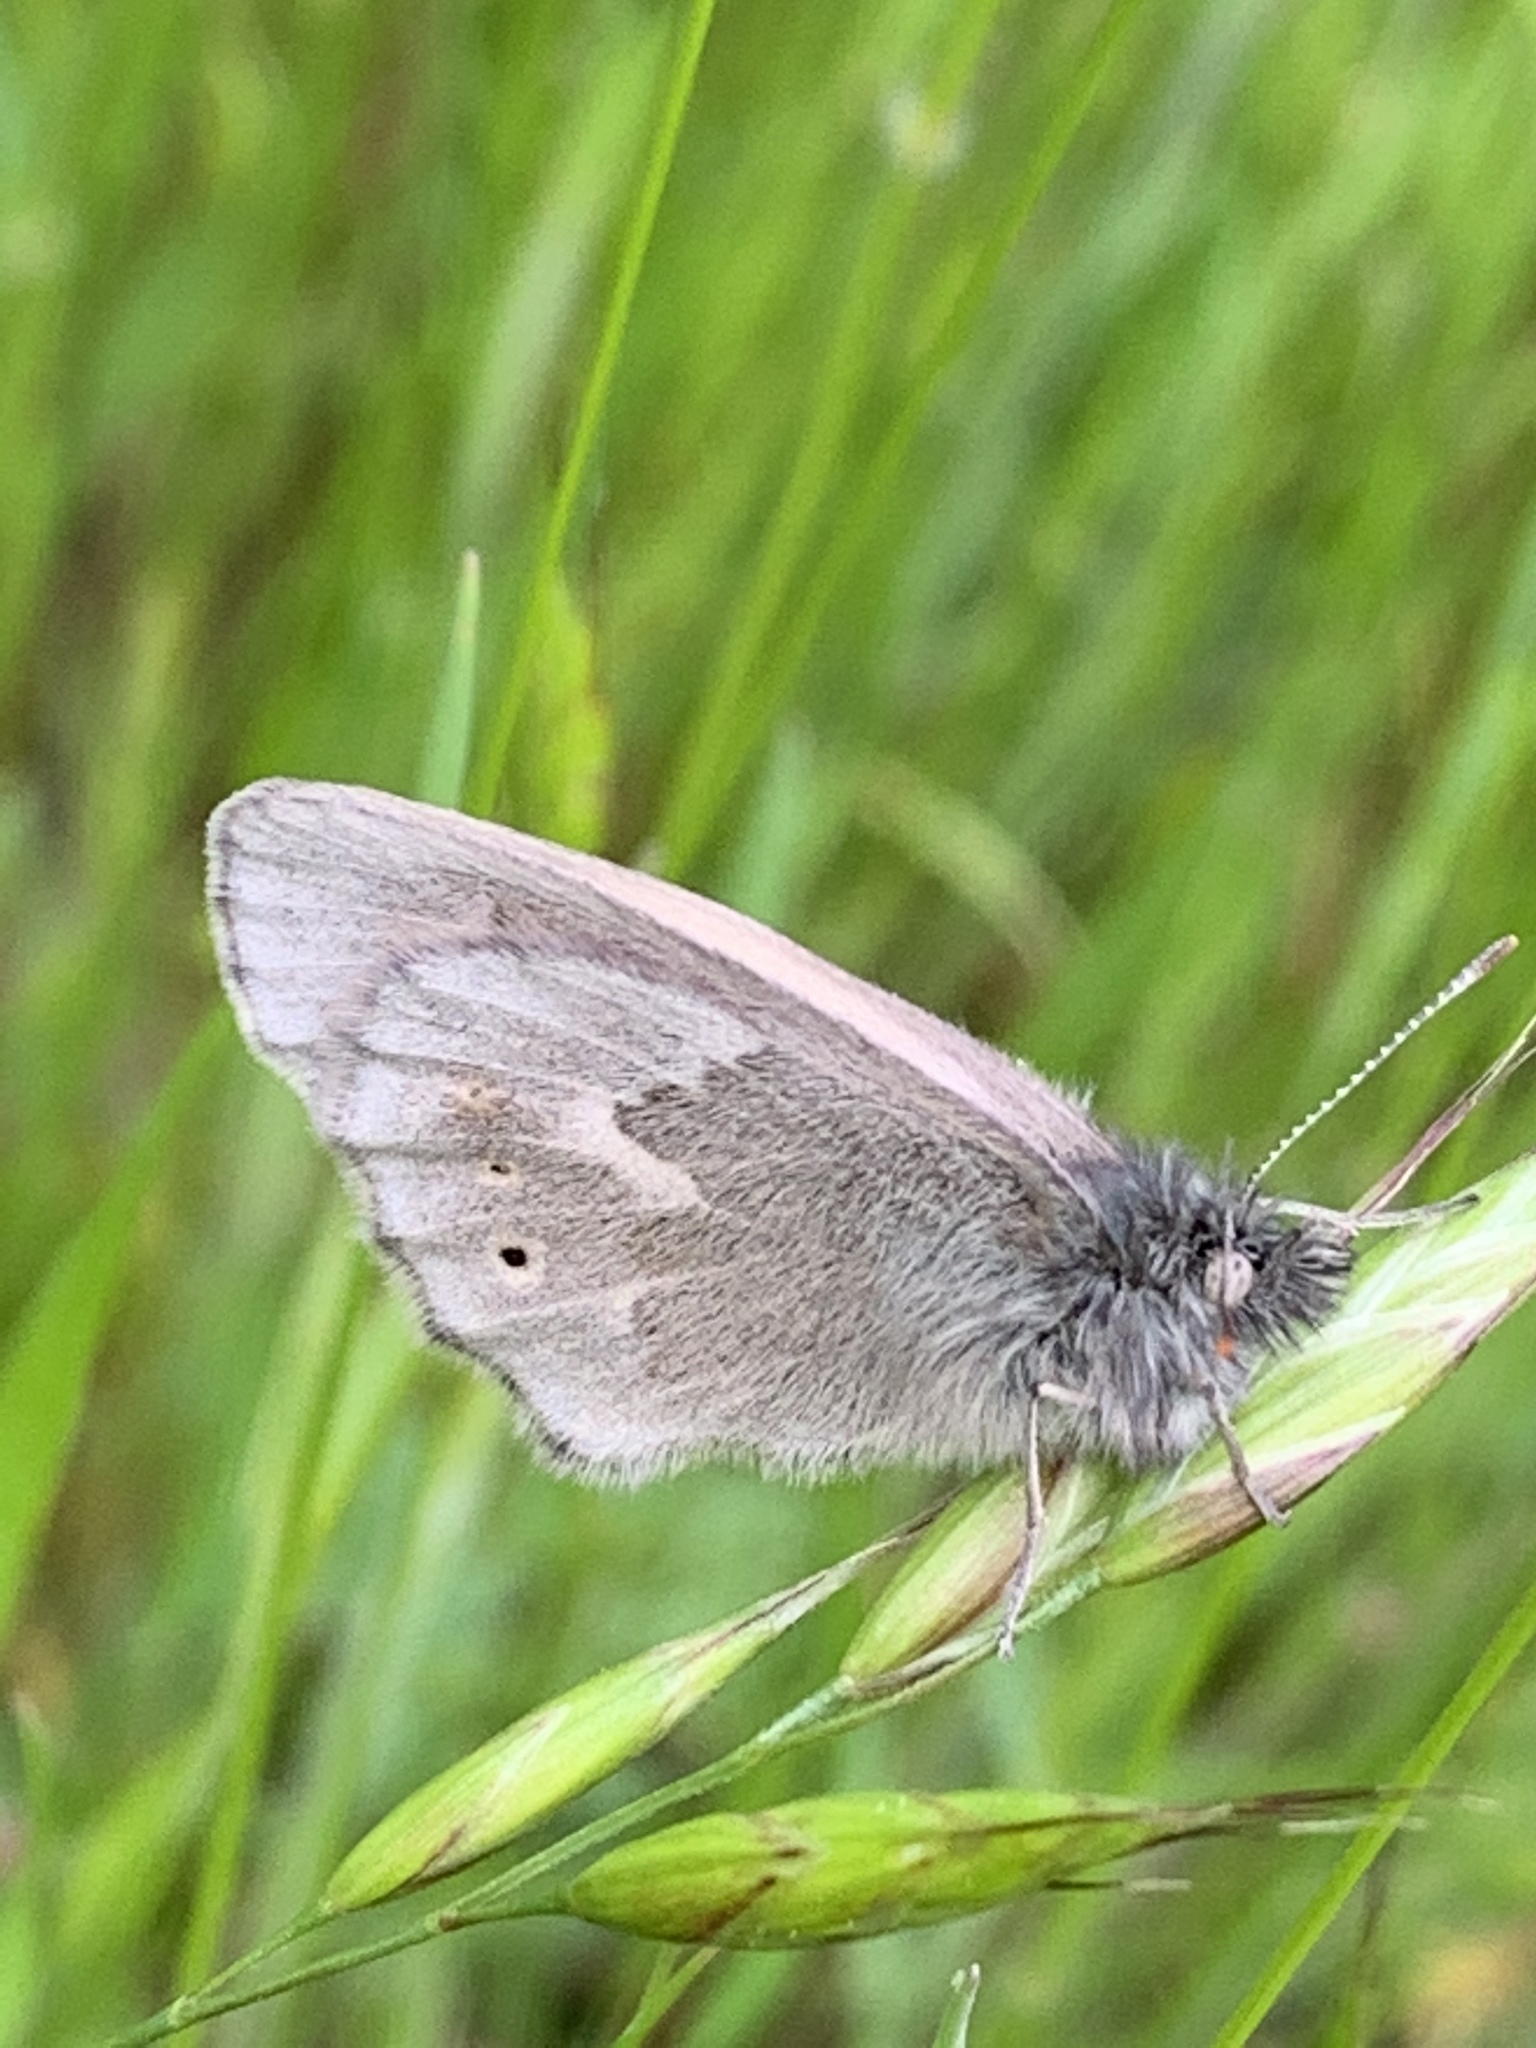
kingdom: Animalia
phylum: Arthropoda
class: Insecta
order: Lepidoptera
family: Nymphalidae
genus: Coenonympha
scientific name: Coenonympha california
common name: Common ringlet
